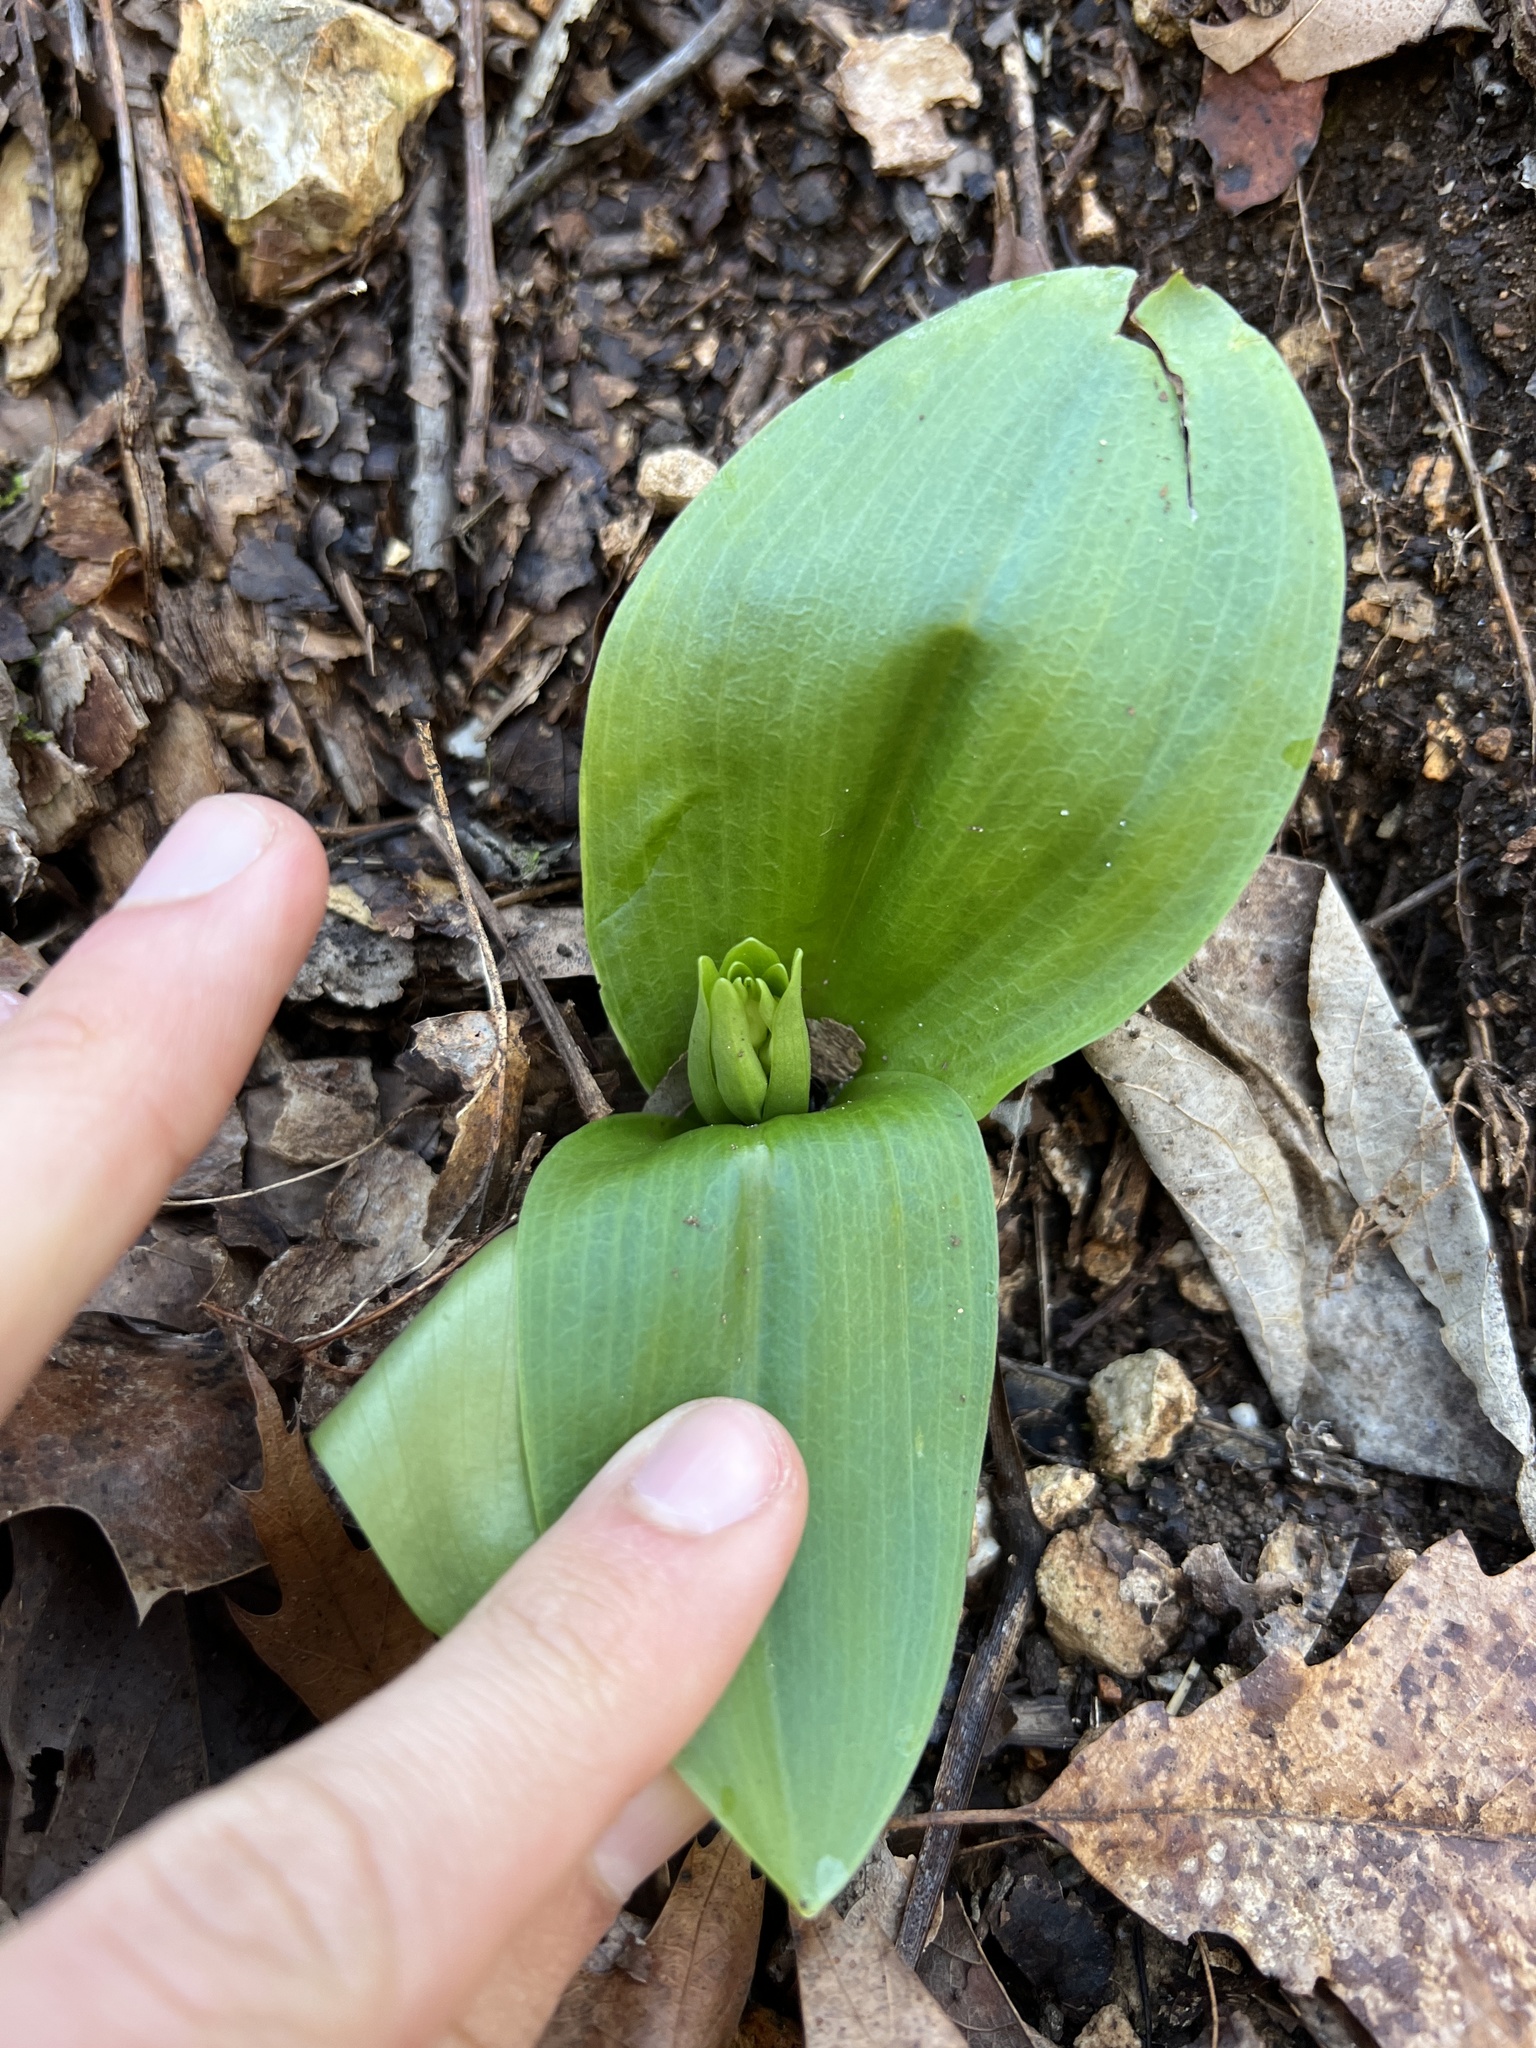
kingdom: Plantae
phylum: Tracheophyta
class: Liliopsida
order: Asparagales
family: Orchidaceae
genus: Galearis
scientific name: Galearis spectabilis
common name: Purple-hooded orchis
